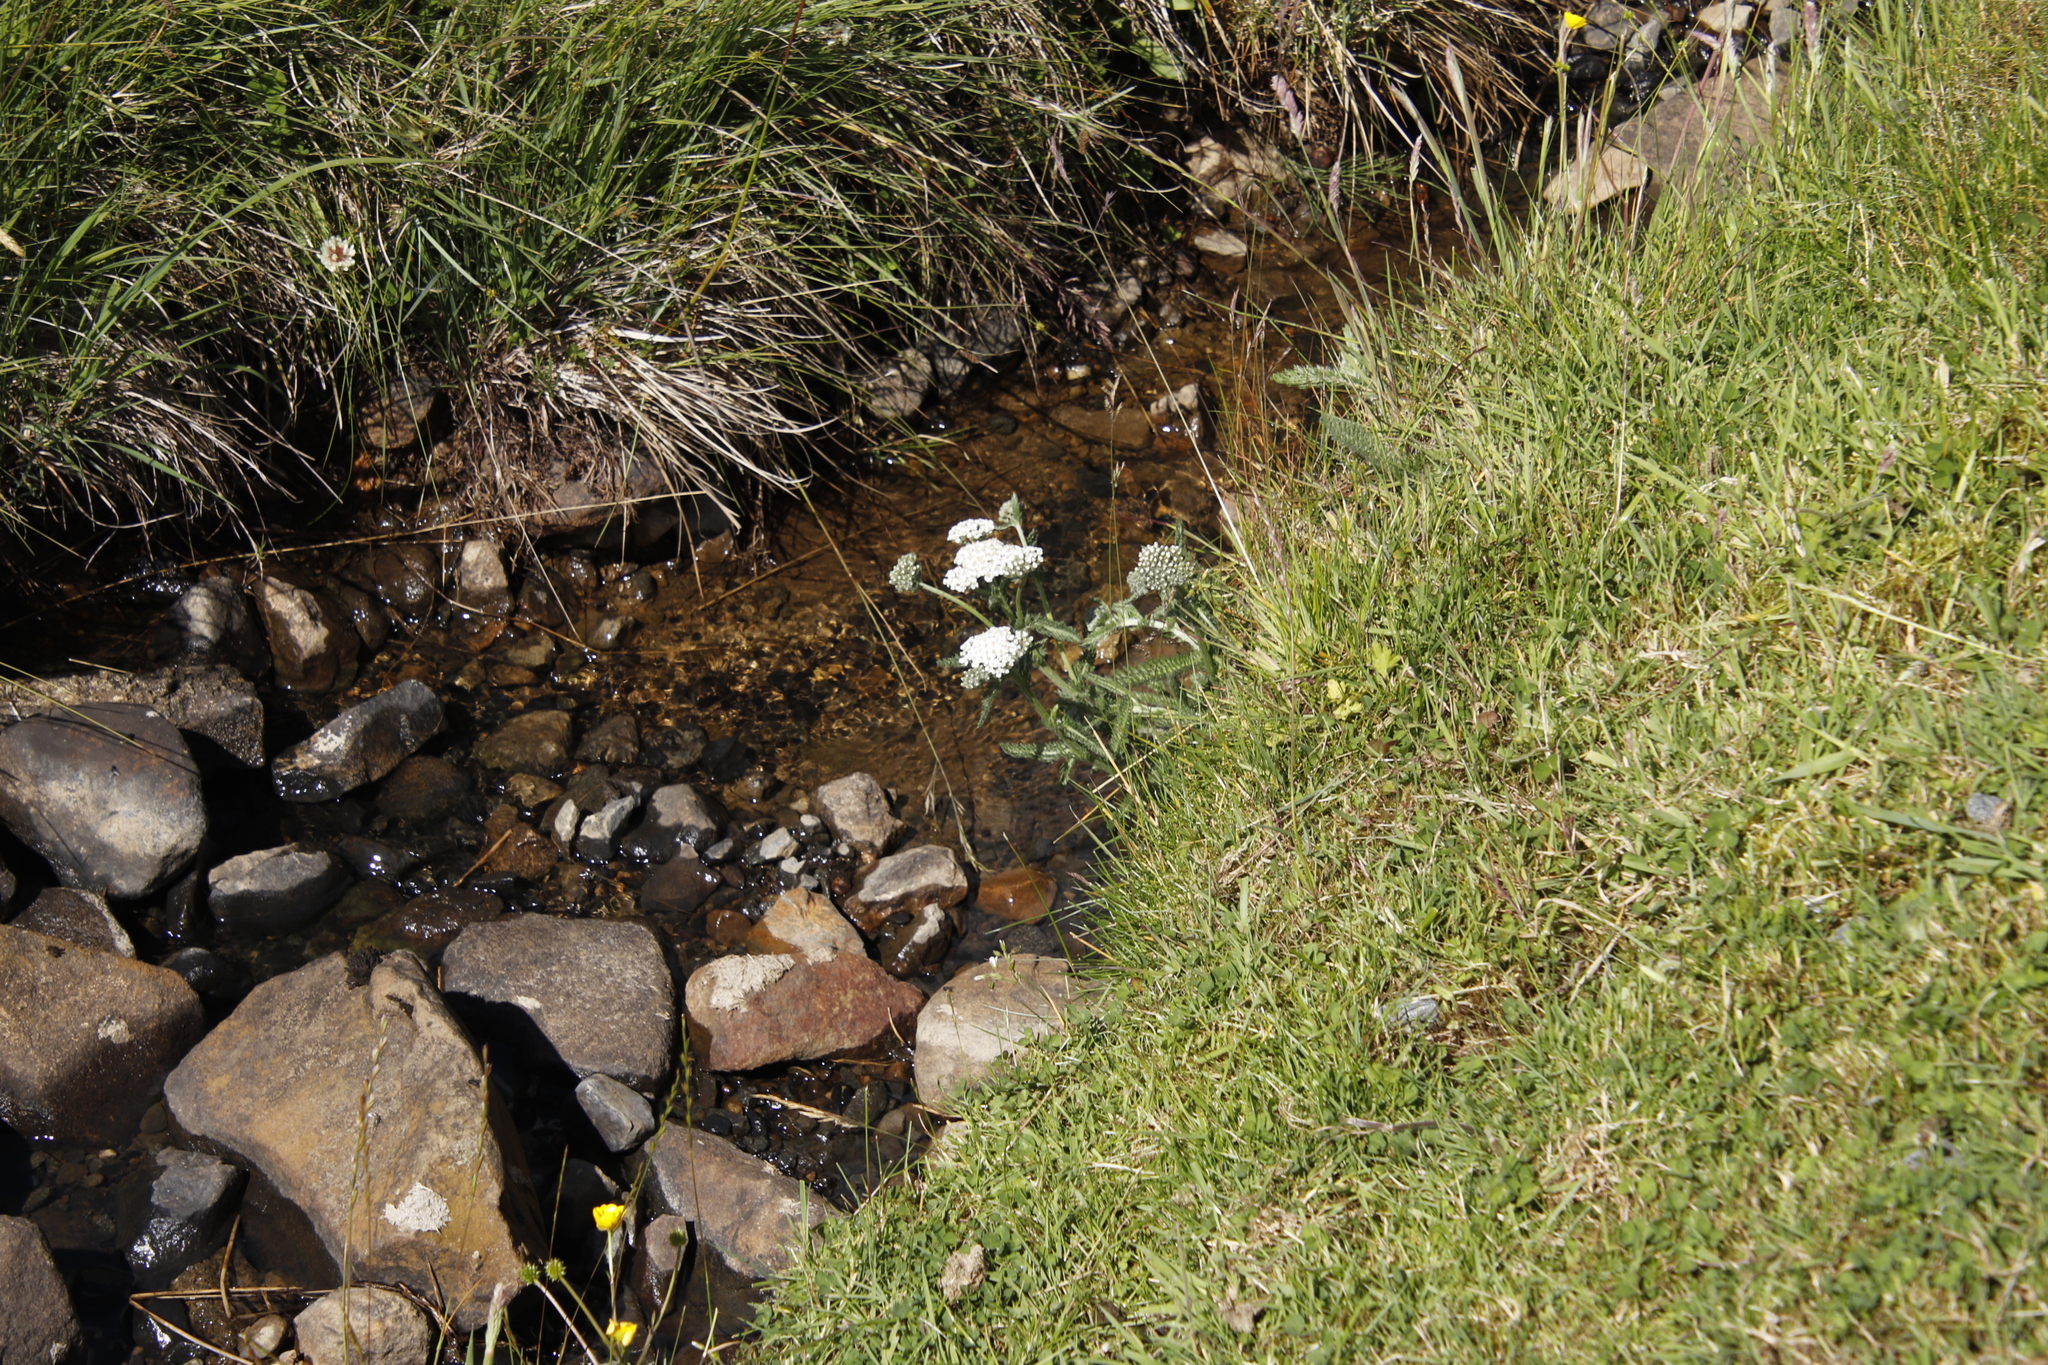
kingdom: Plantae
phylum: Tracheophyta
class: Magnoliopsida
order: Asterales
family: Asteraceae
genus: Achillea
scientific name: Achillea millefolium
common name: Yarrow
